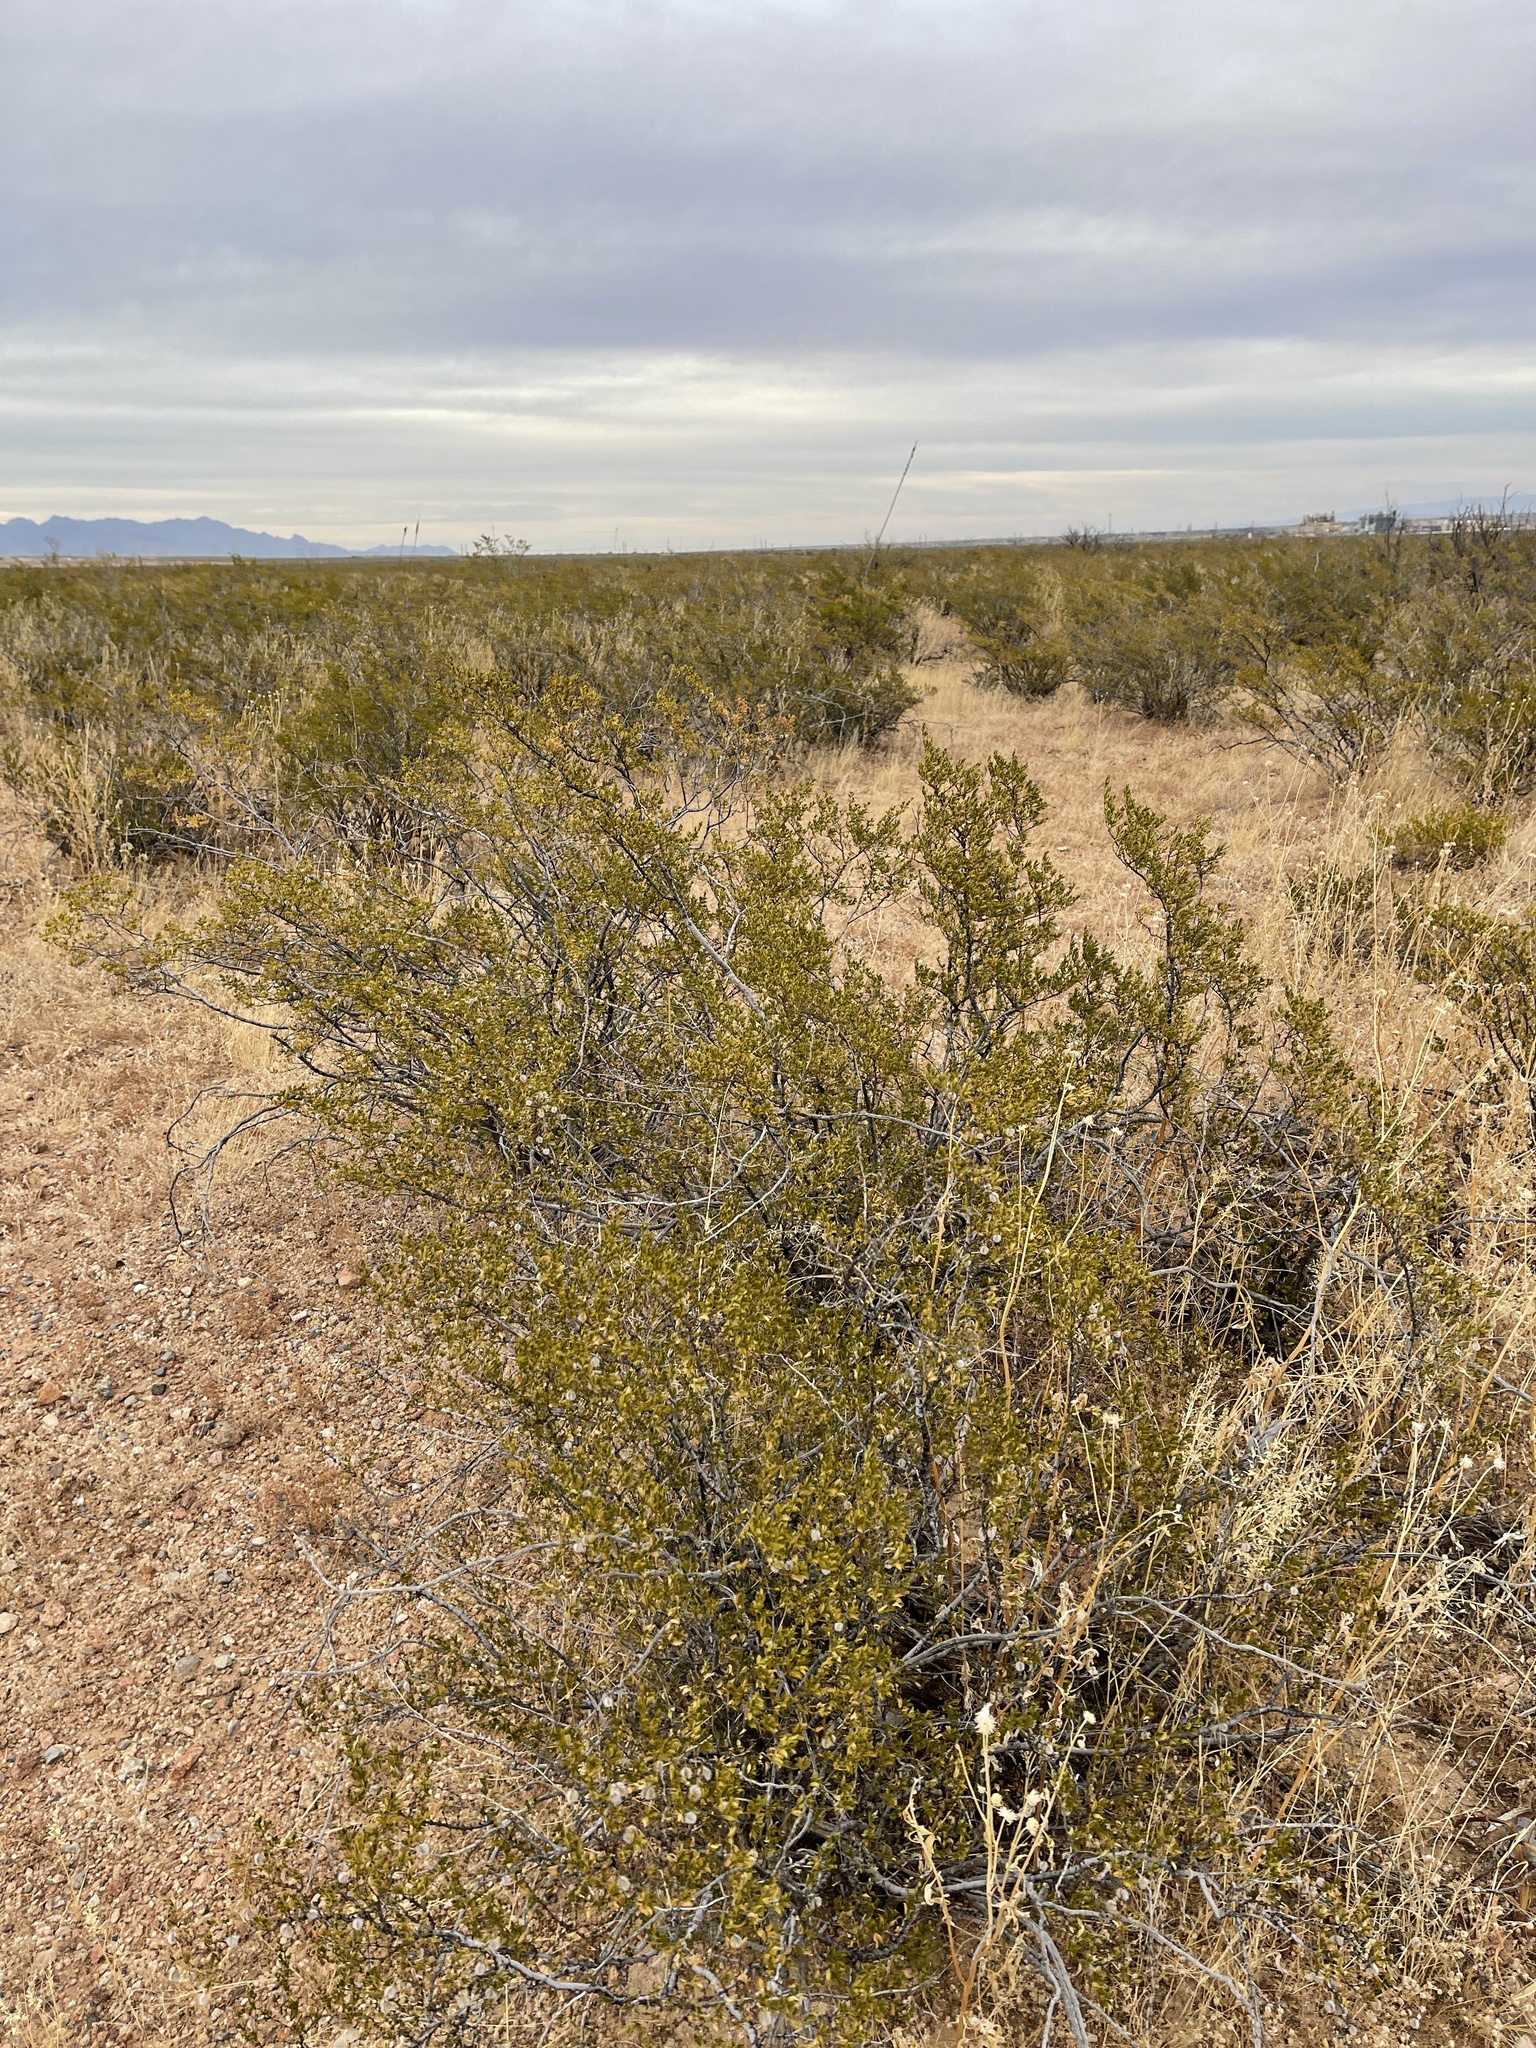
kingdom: Plantae
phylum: Tracheophyta
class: Magnoliopsida
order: Zygophyllales
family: Zygophyllaceae
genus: Larrea
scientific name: Larrea tridentata
